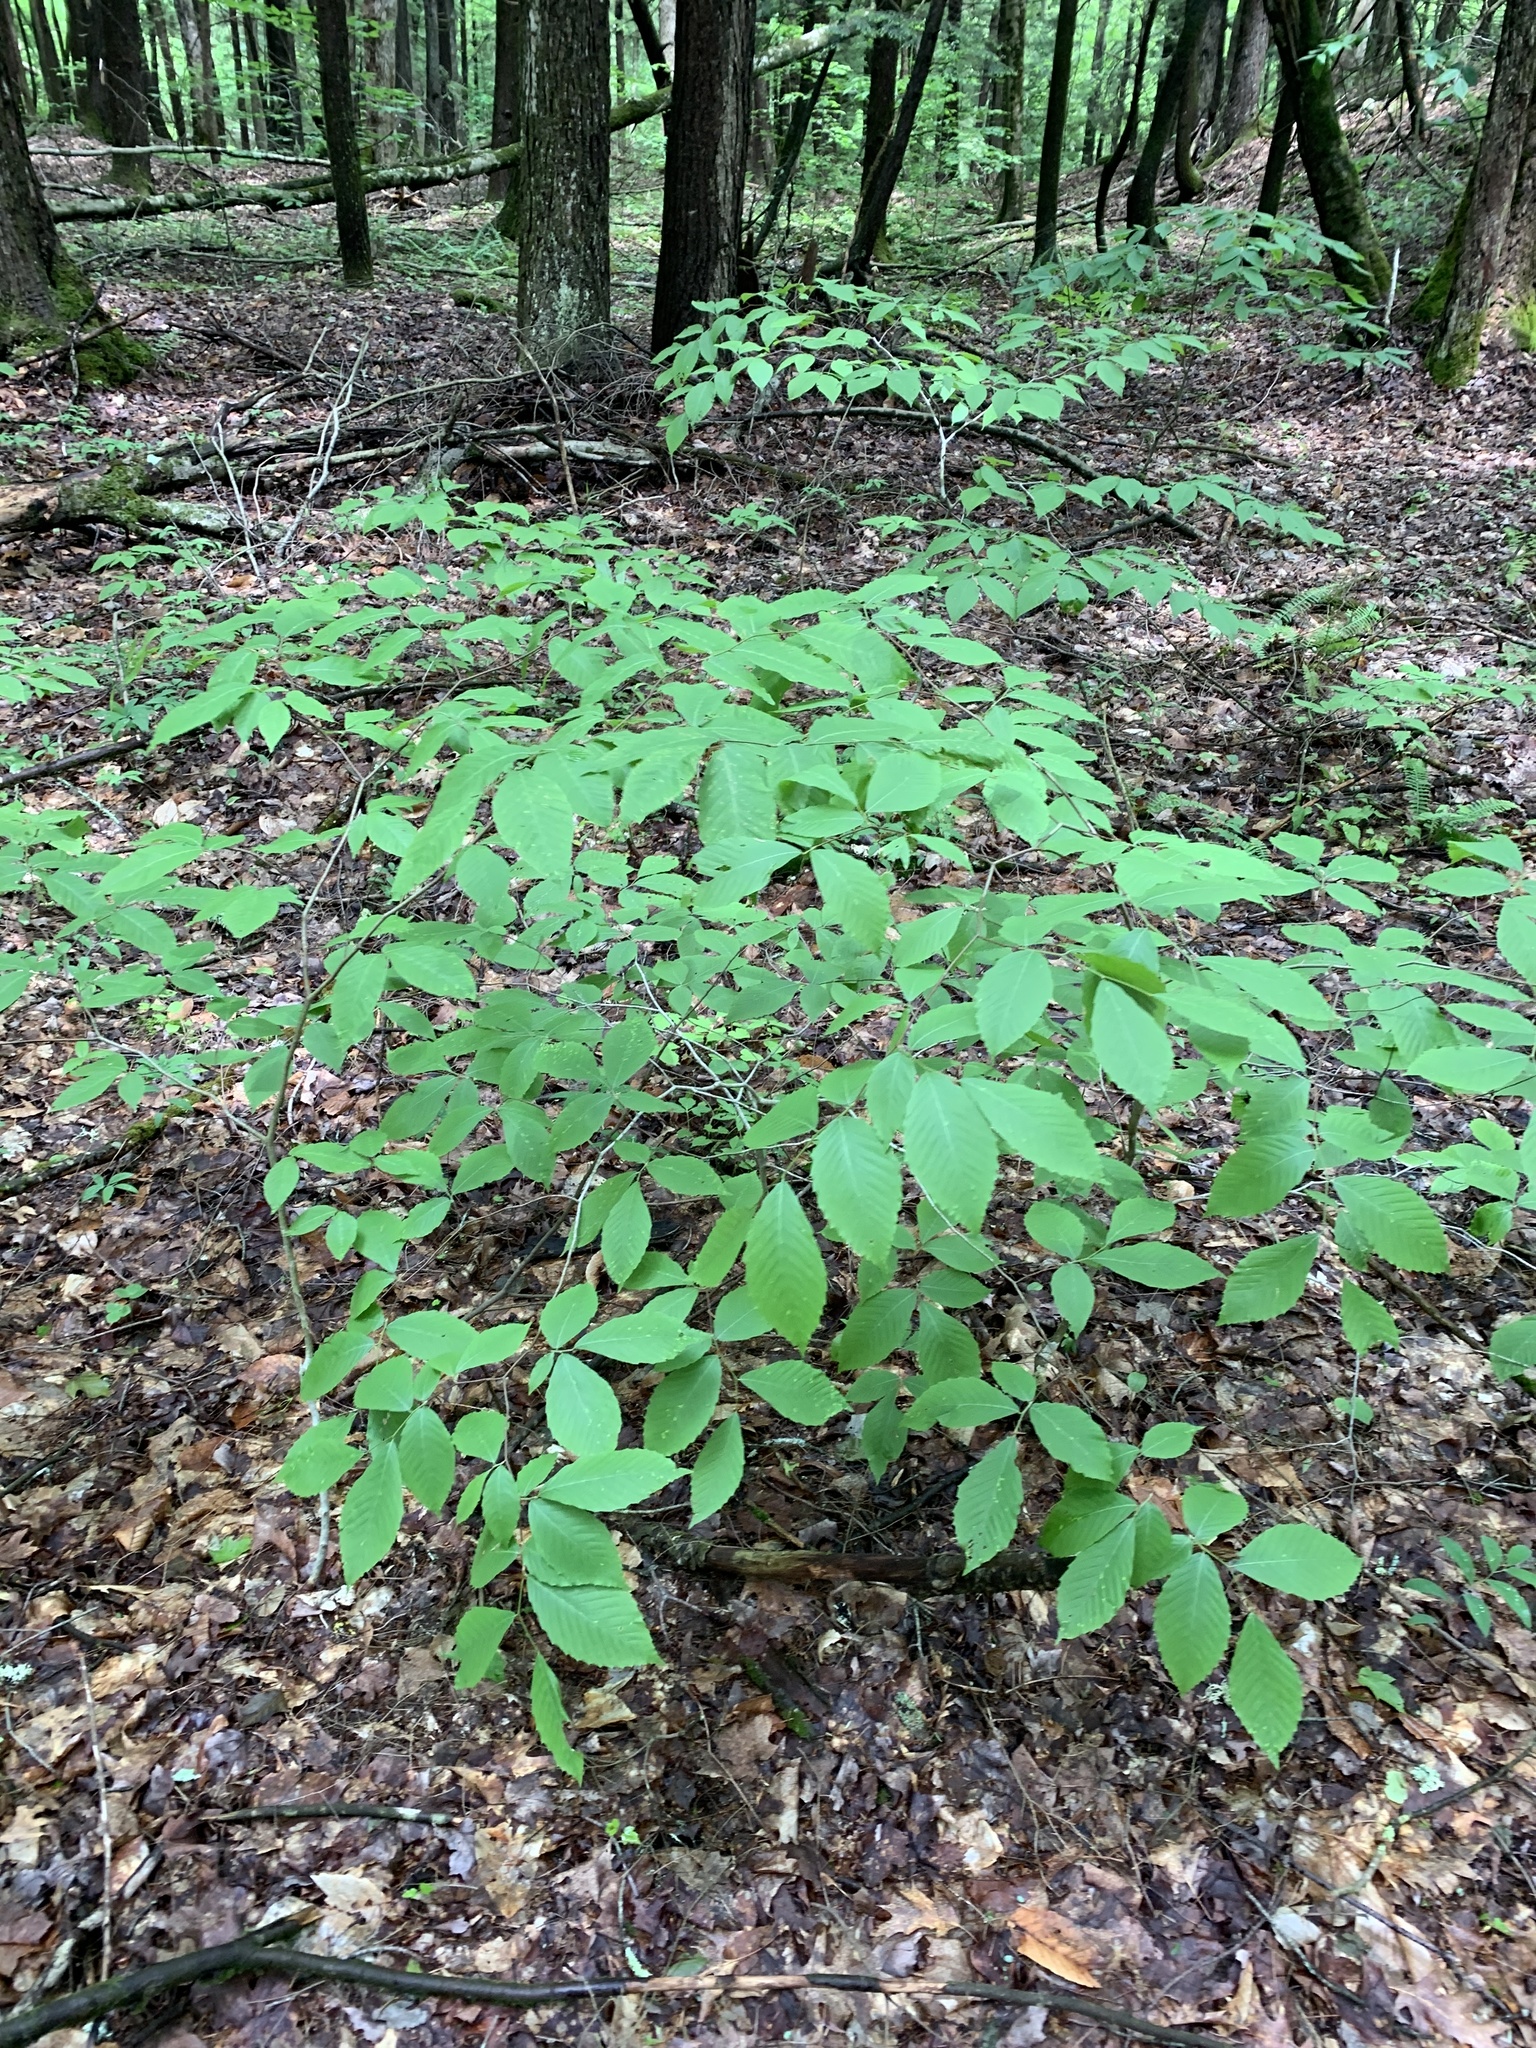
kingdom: Plantae
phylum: Tracheophyta
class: Magnoliopsida
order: Fagales
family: Fagaceae
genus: Fagus
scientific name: Fagus grandifolia
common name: American beech
